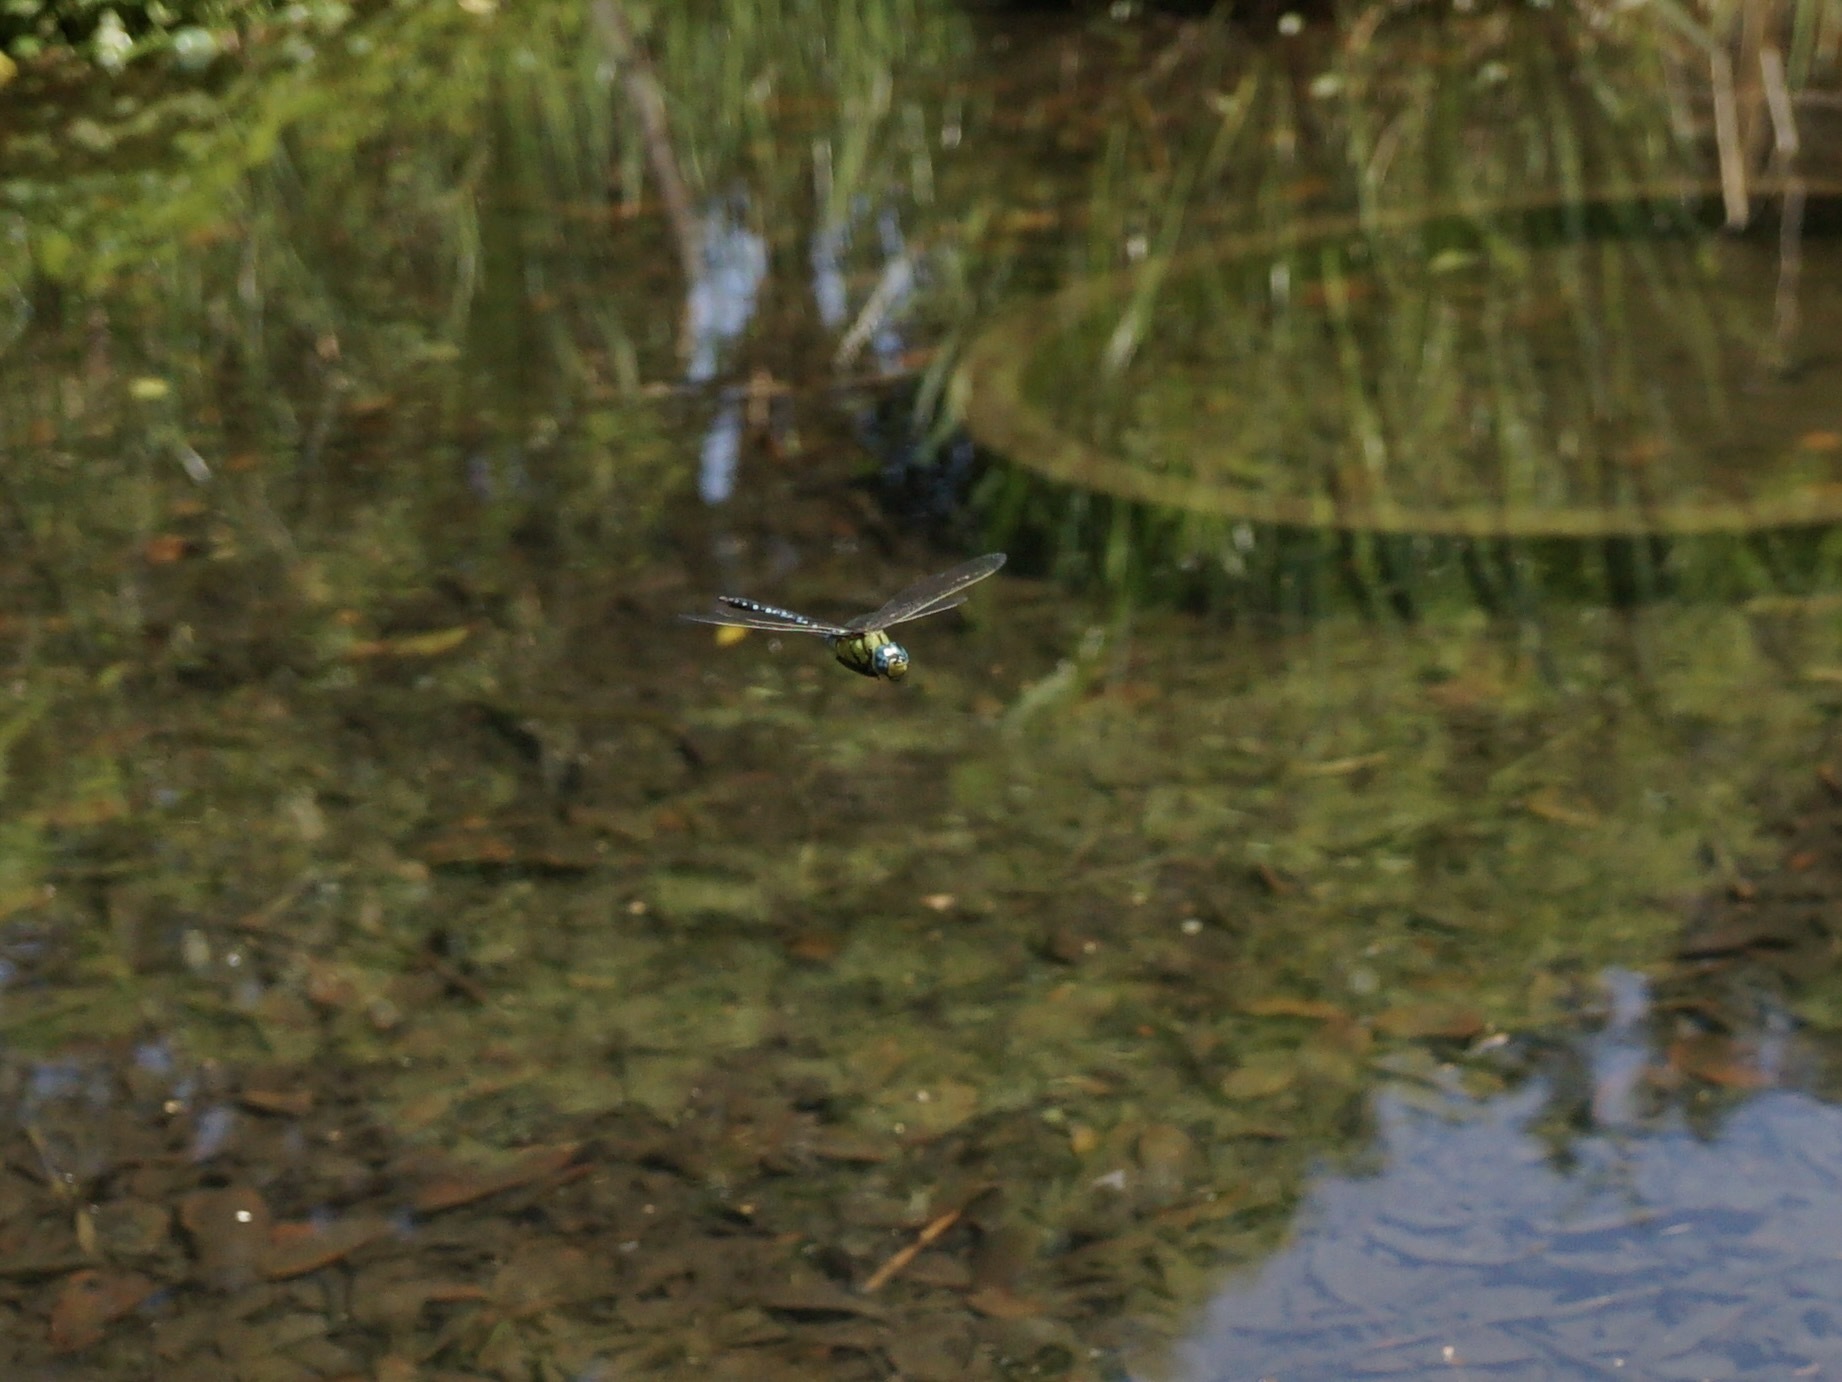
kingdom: Animalia
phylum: Arthropoda
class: Insecta
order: Odonata
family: Aeshnidae
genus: Anax
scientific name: Anax nigrofasciatus
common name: Blue-spotted emperor
